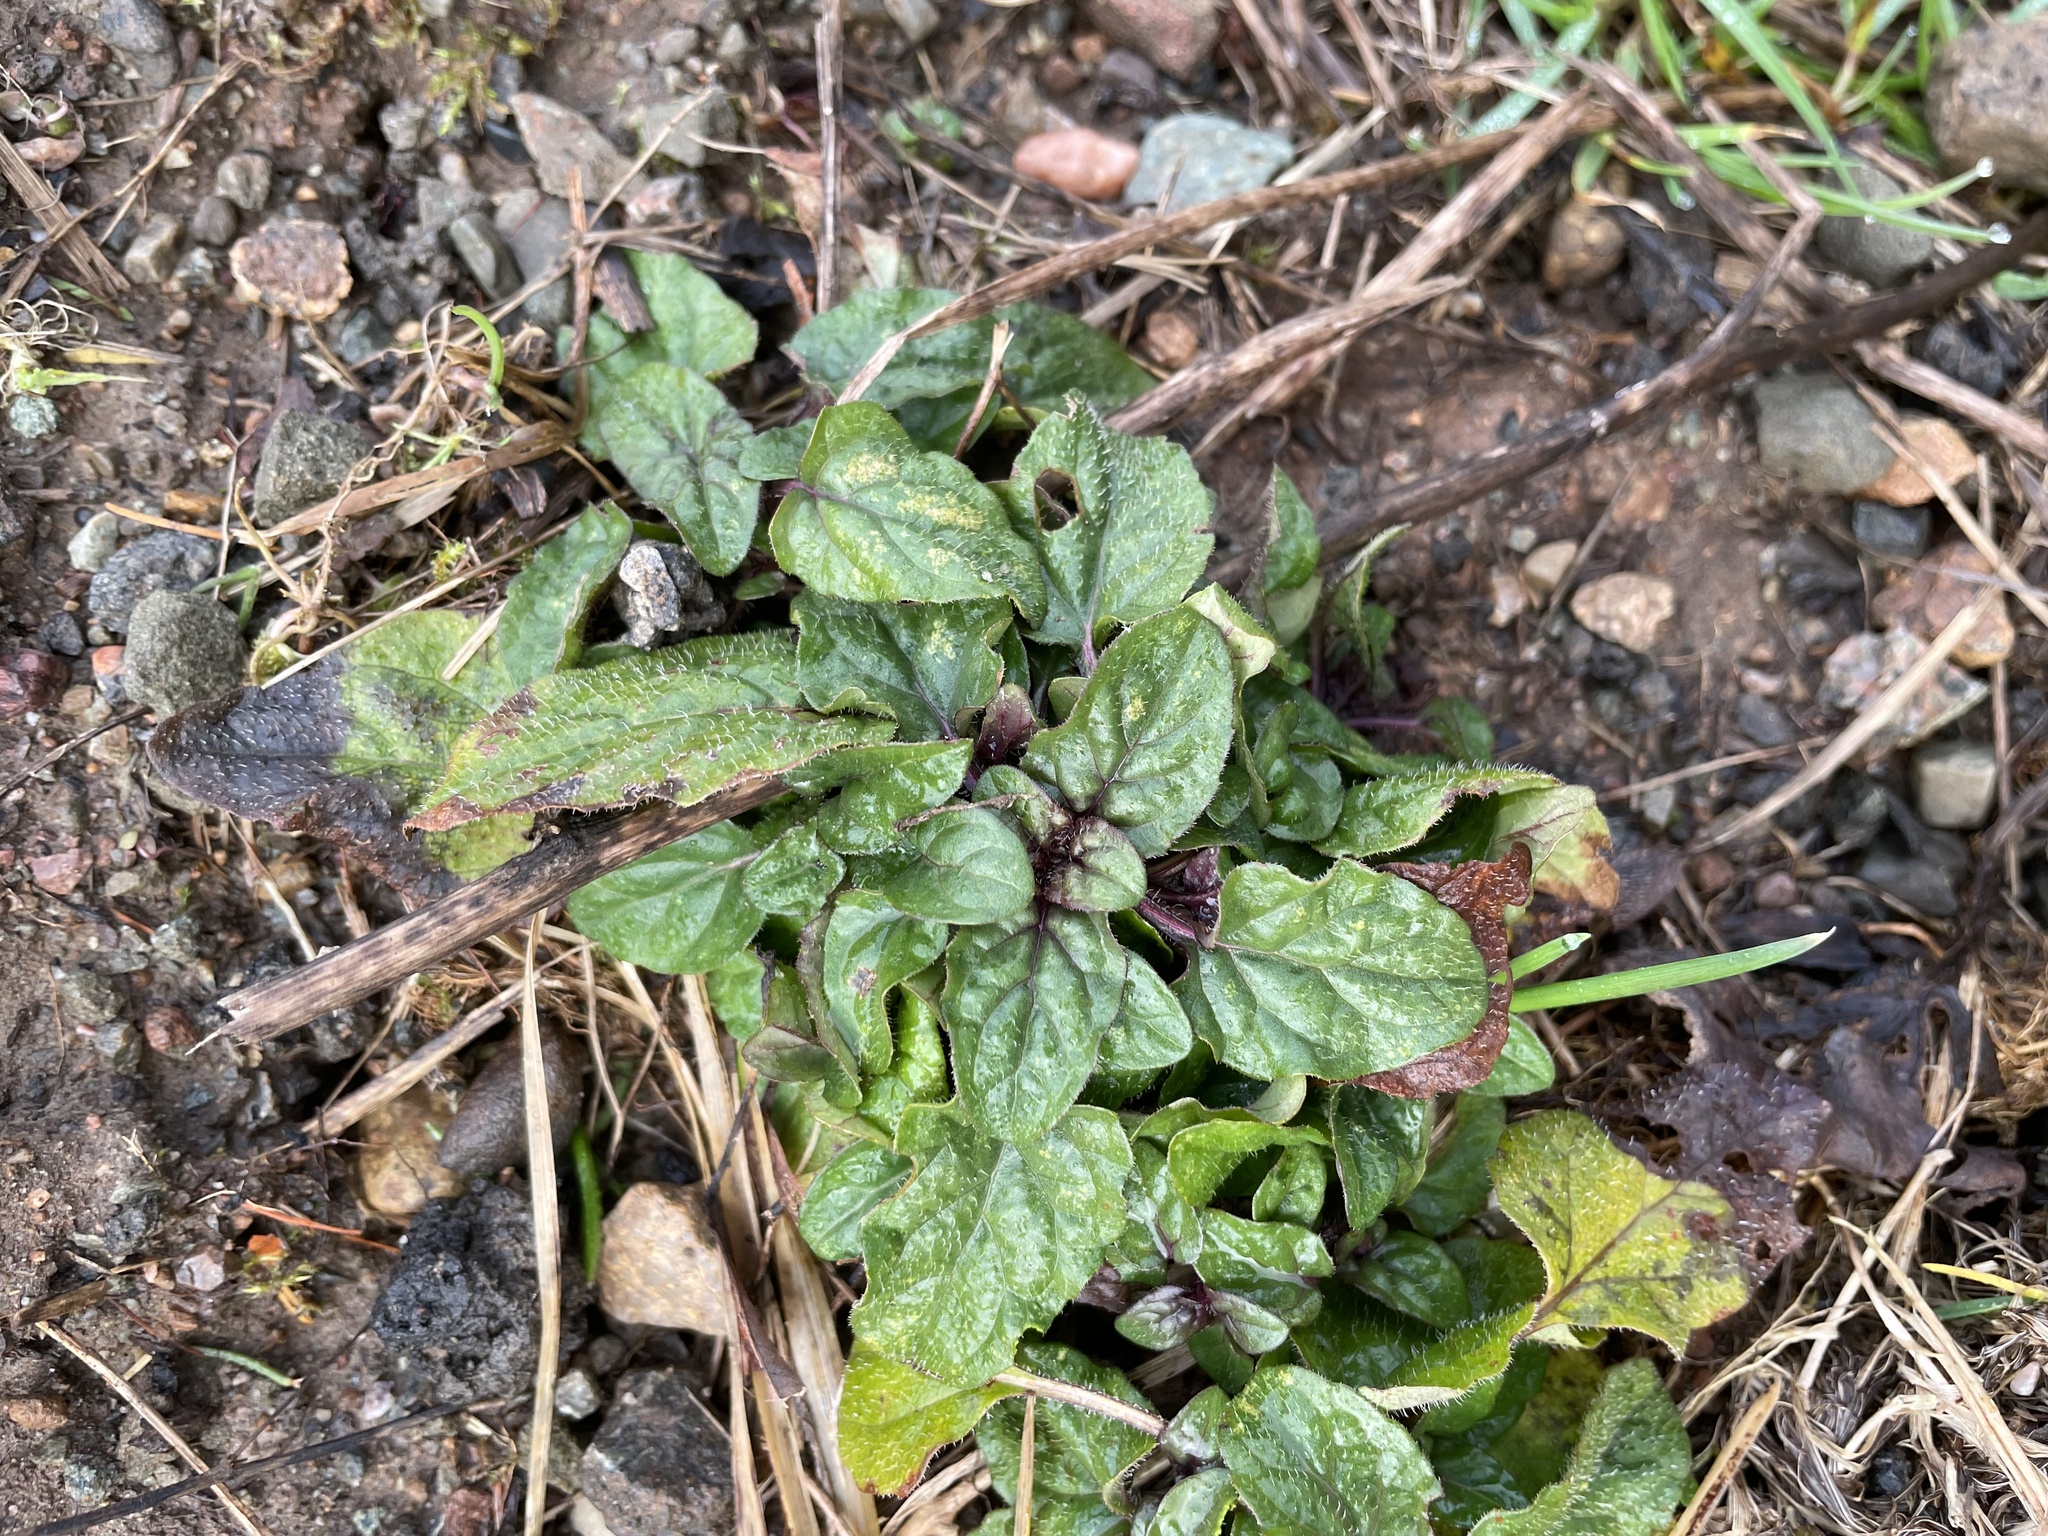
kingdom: Plantae
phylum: Tracheophyta
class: Magnoliopsida
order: Lamiales
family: Lamiaceae
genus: Prunella
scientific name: Prunella vulgaris
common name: Heal-all
